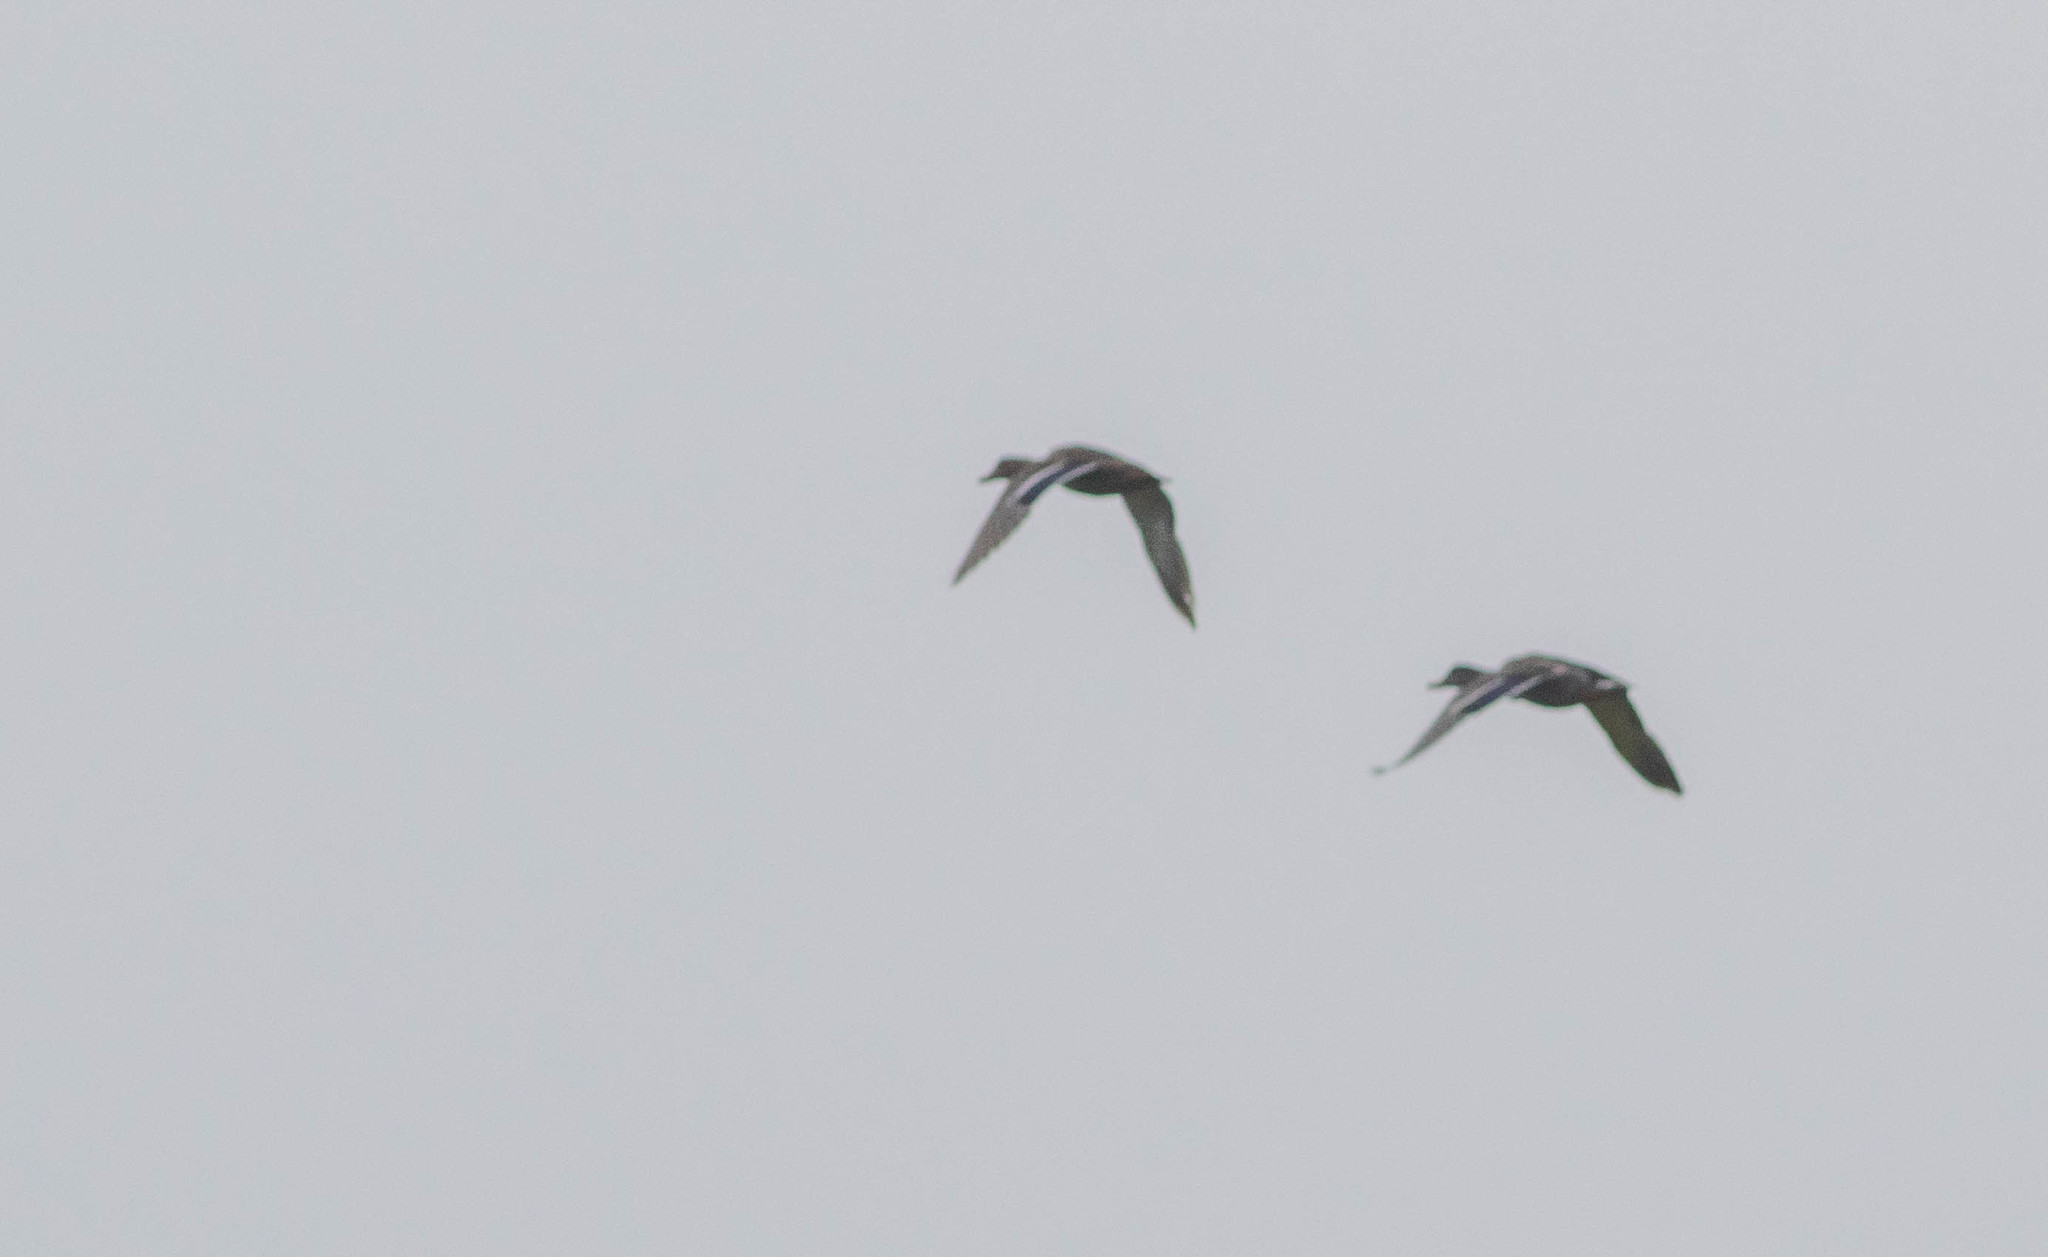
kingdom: Animalia
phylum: Chordata
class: Aves
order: Anseriformes
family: Anatidae
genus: Anas
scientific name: Anas platyrhynchos
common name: Mallard
